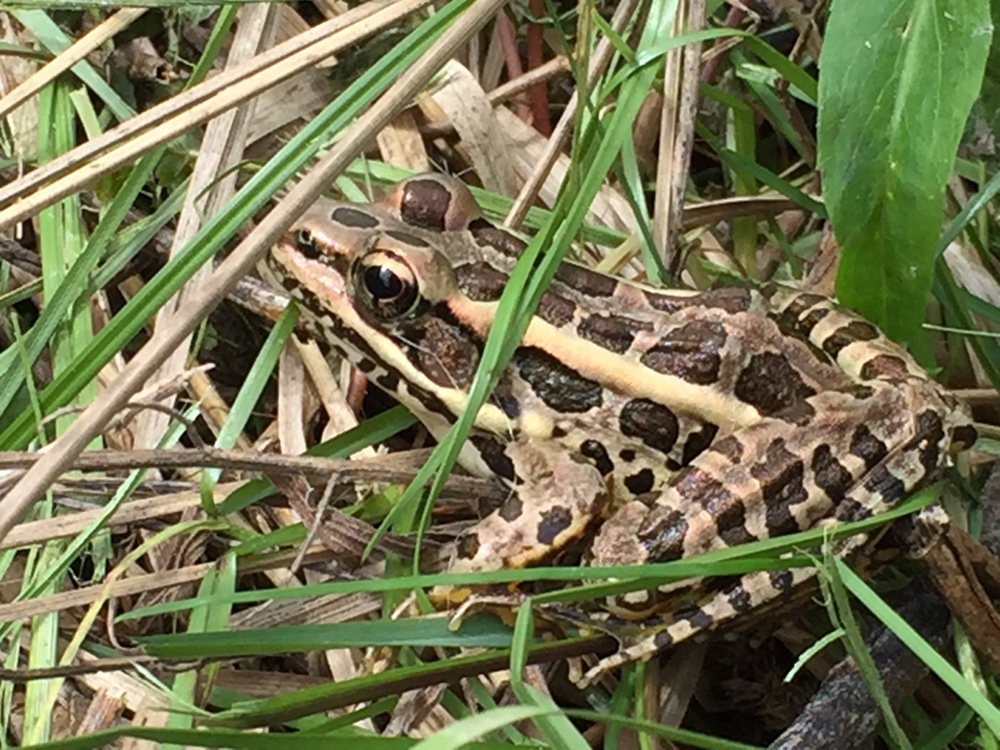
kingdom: Animalia
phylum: Chordata
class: Amphibia
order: Anura
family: Ranidae
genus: Lithobates
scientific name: Lithobates palustris
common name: Pickerel frog
